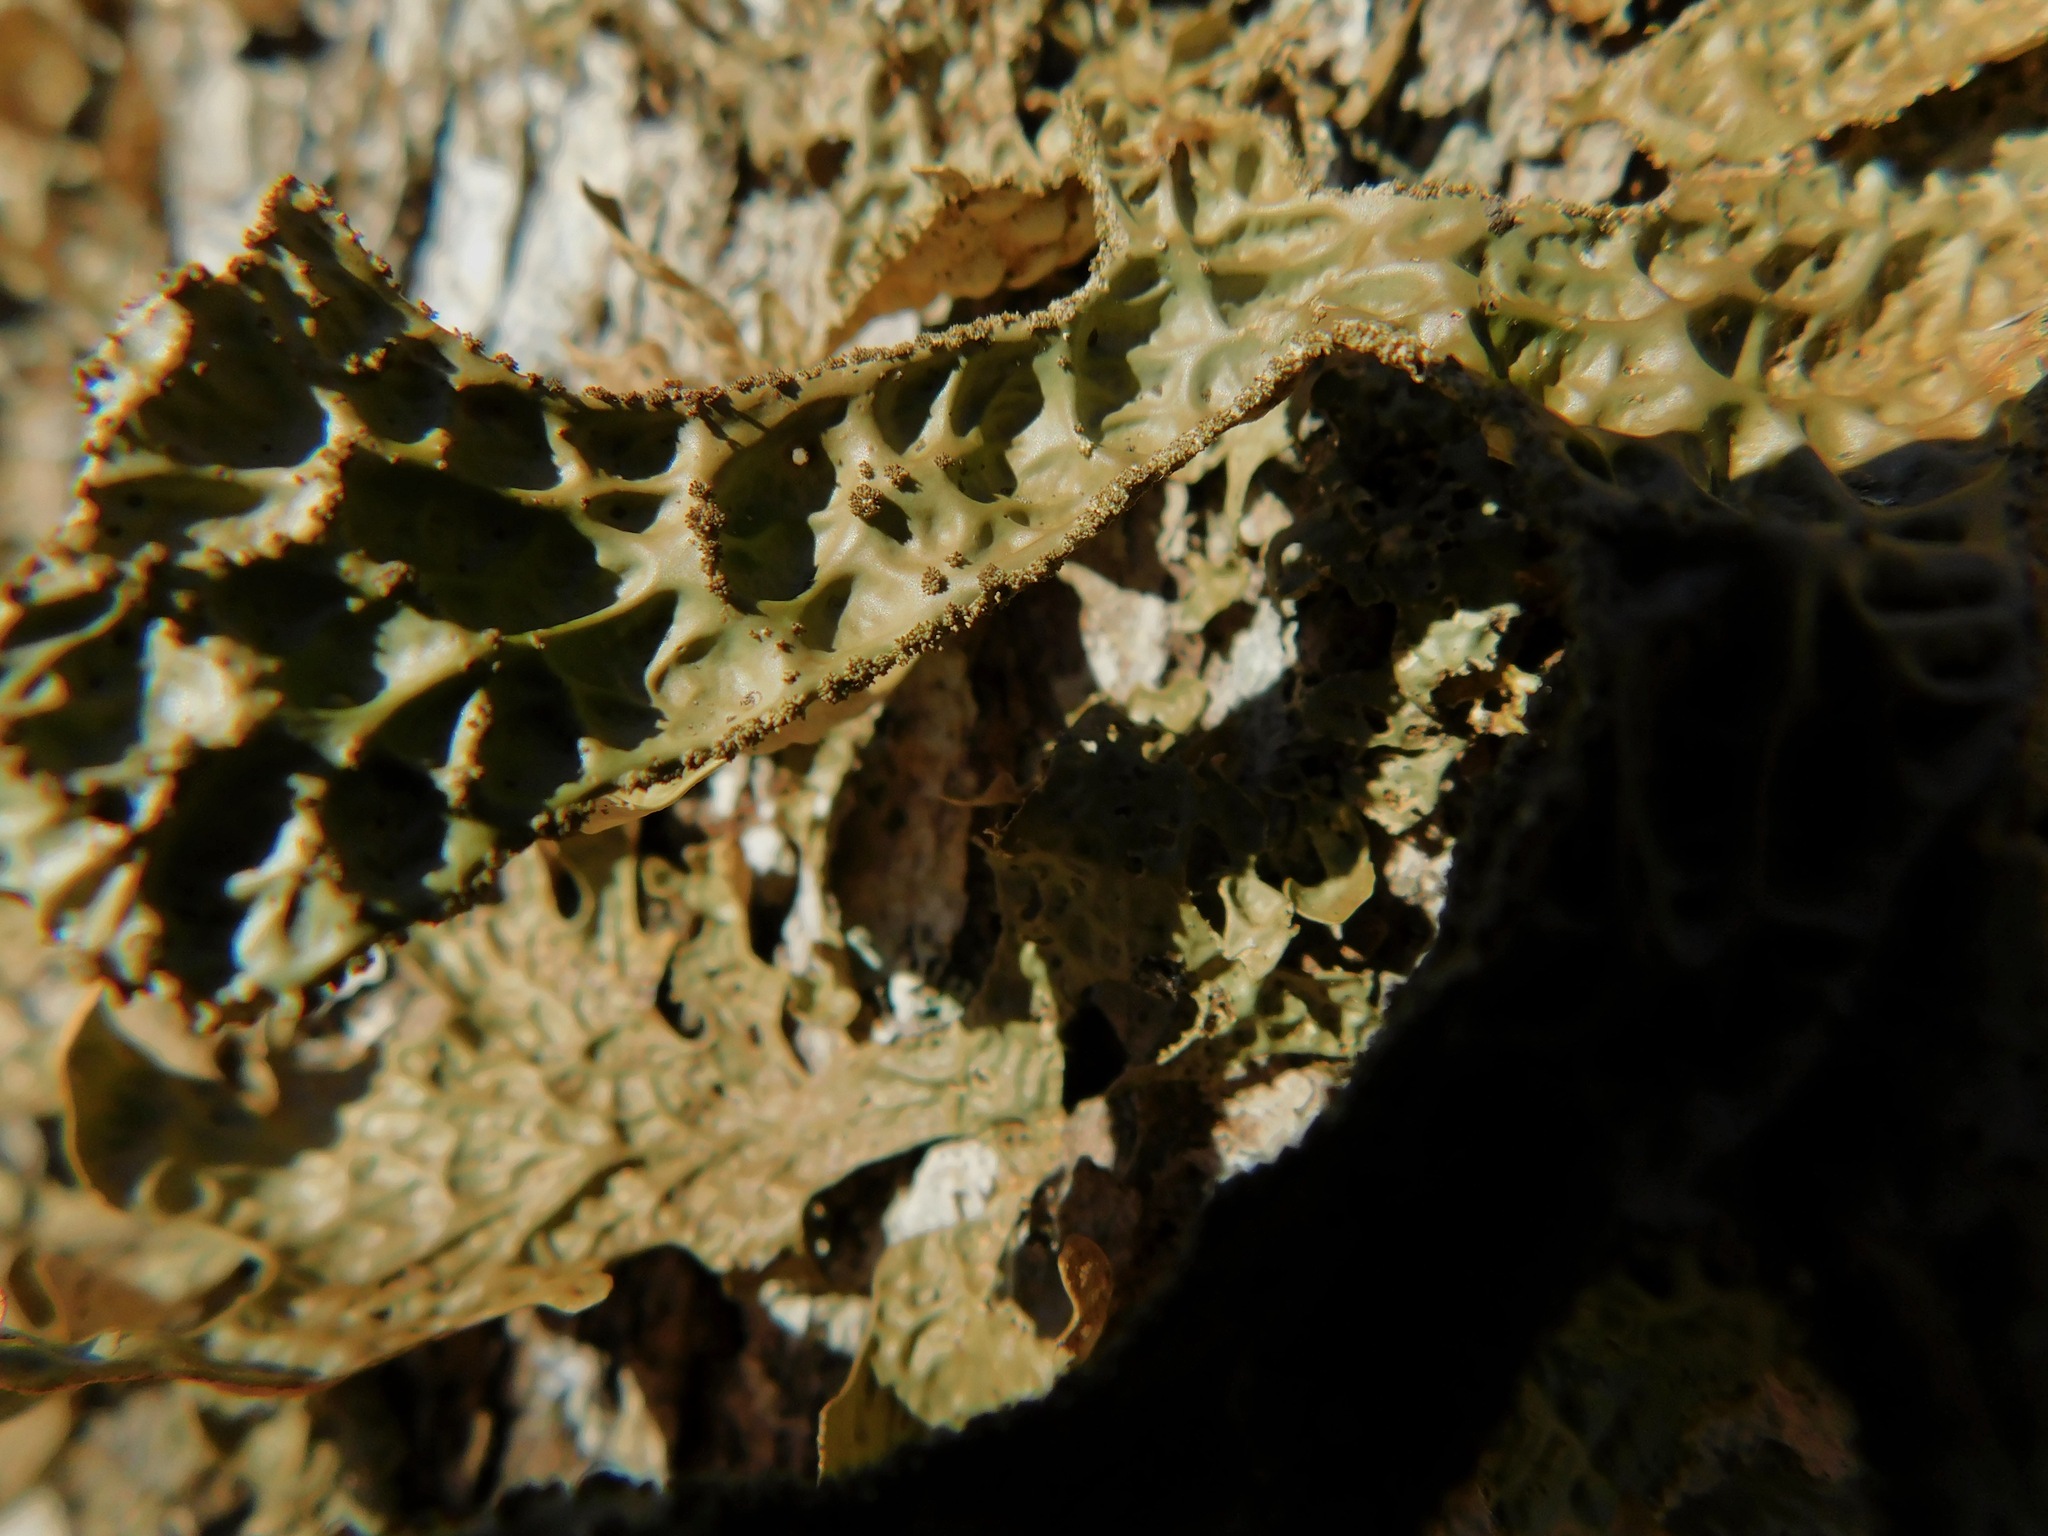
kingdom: Fungi
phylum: Ascomycota
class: Lecanoromycetes
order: Peltigerales
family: Lobariaceae
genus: Lobaria
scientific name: Lobaria pulmonaria
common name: Lungwort
